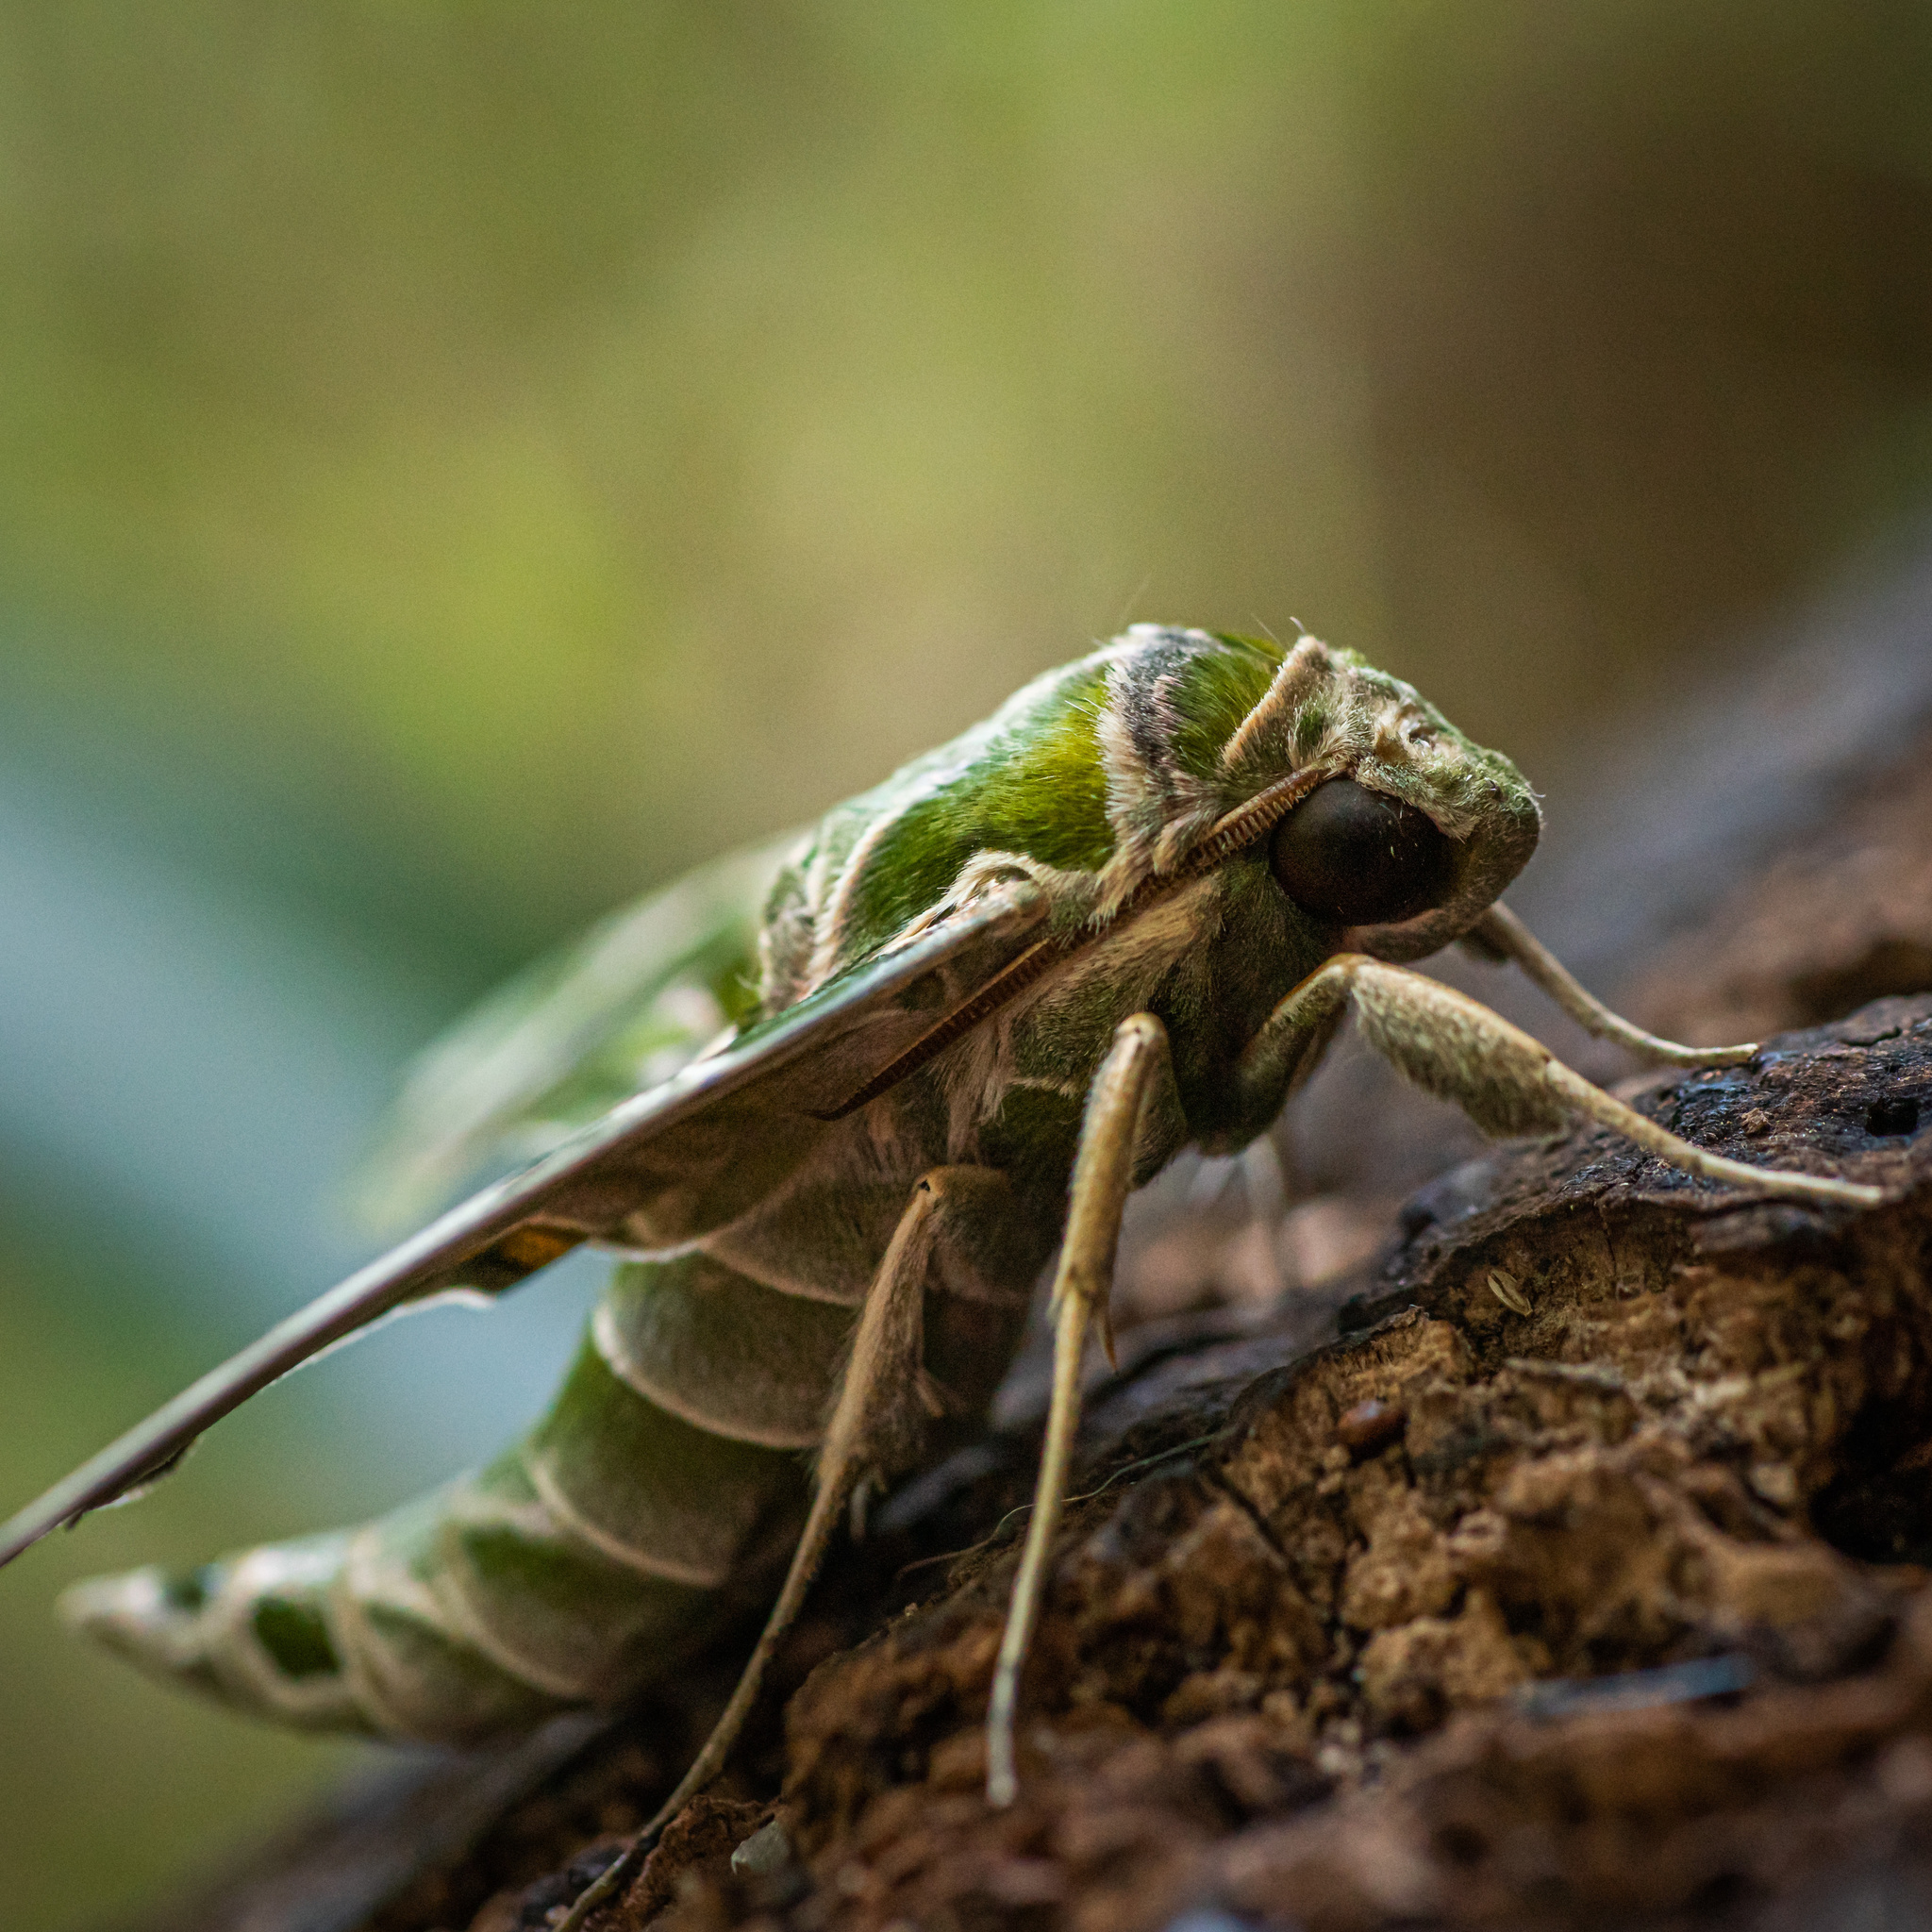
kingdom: Animalia
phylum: Arthropoda
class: Insecta
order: Lepidoptera
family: Sphingidae
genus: Daphnis
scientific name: Daphnis nerii
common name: Oleander hawk-moth
